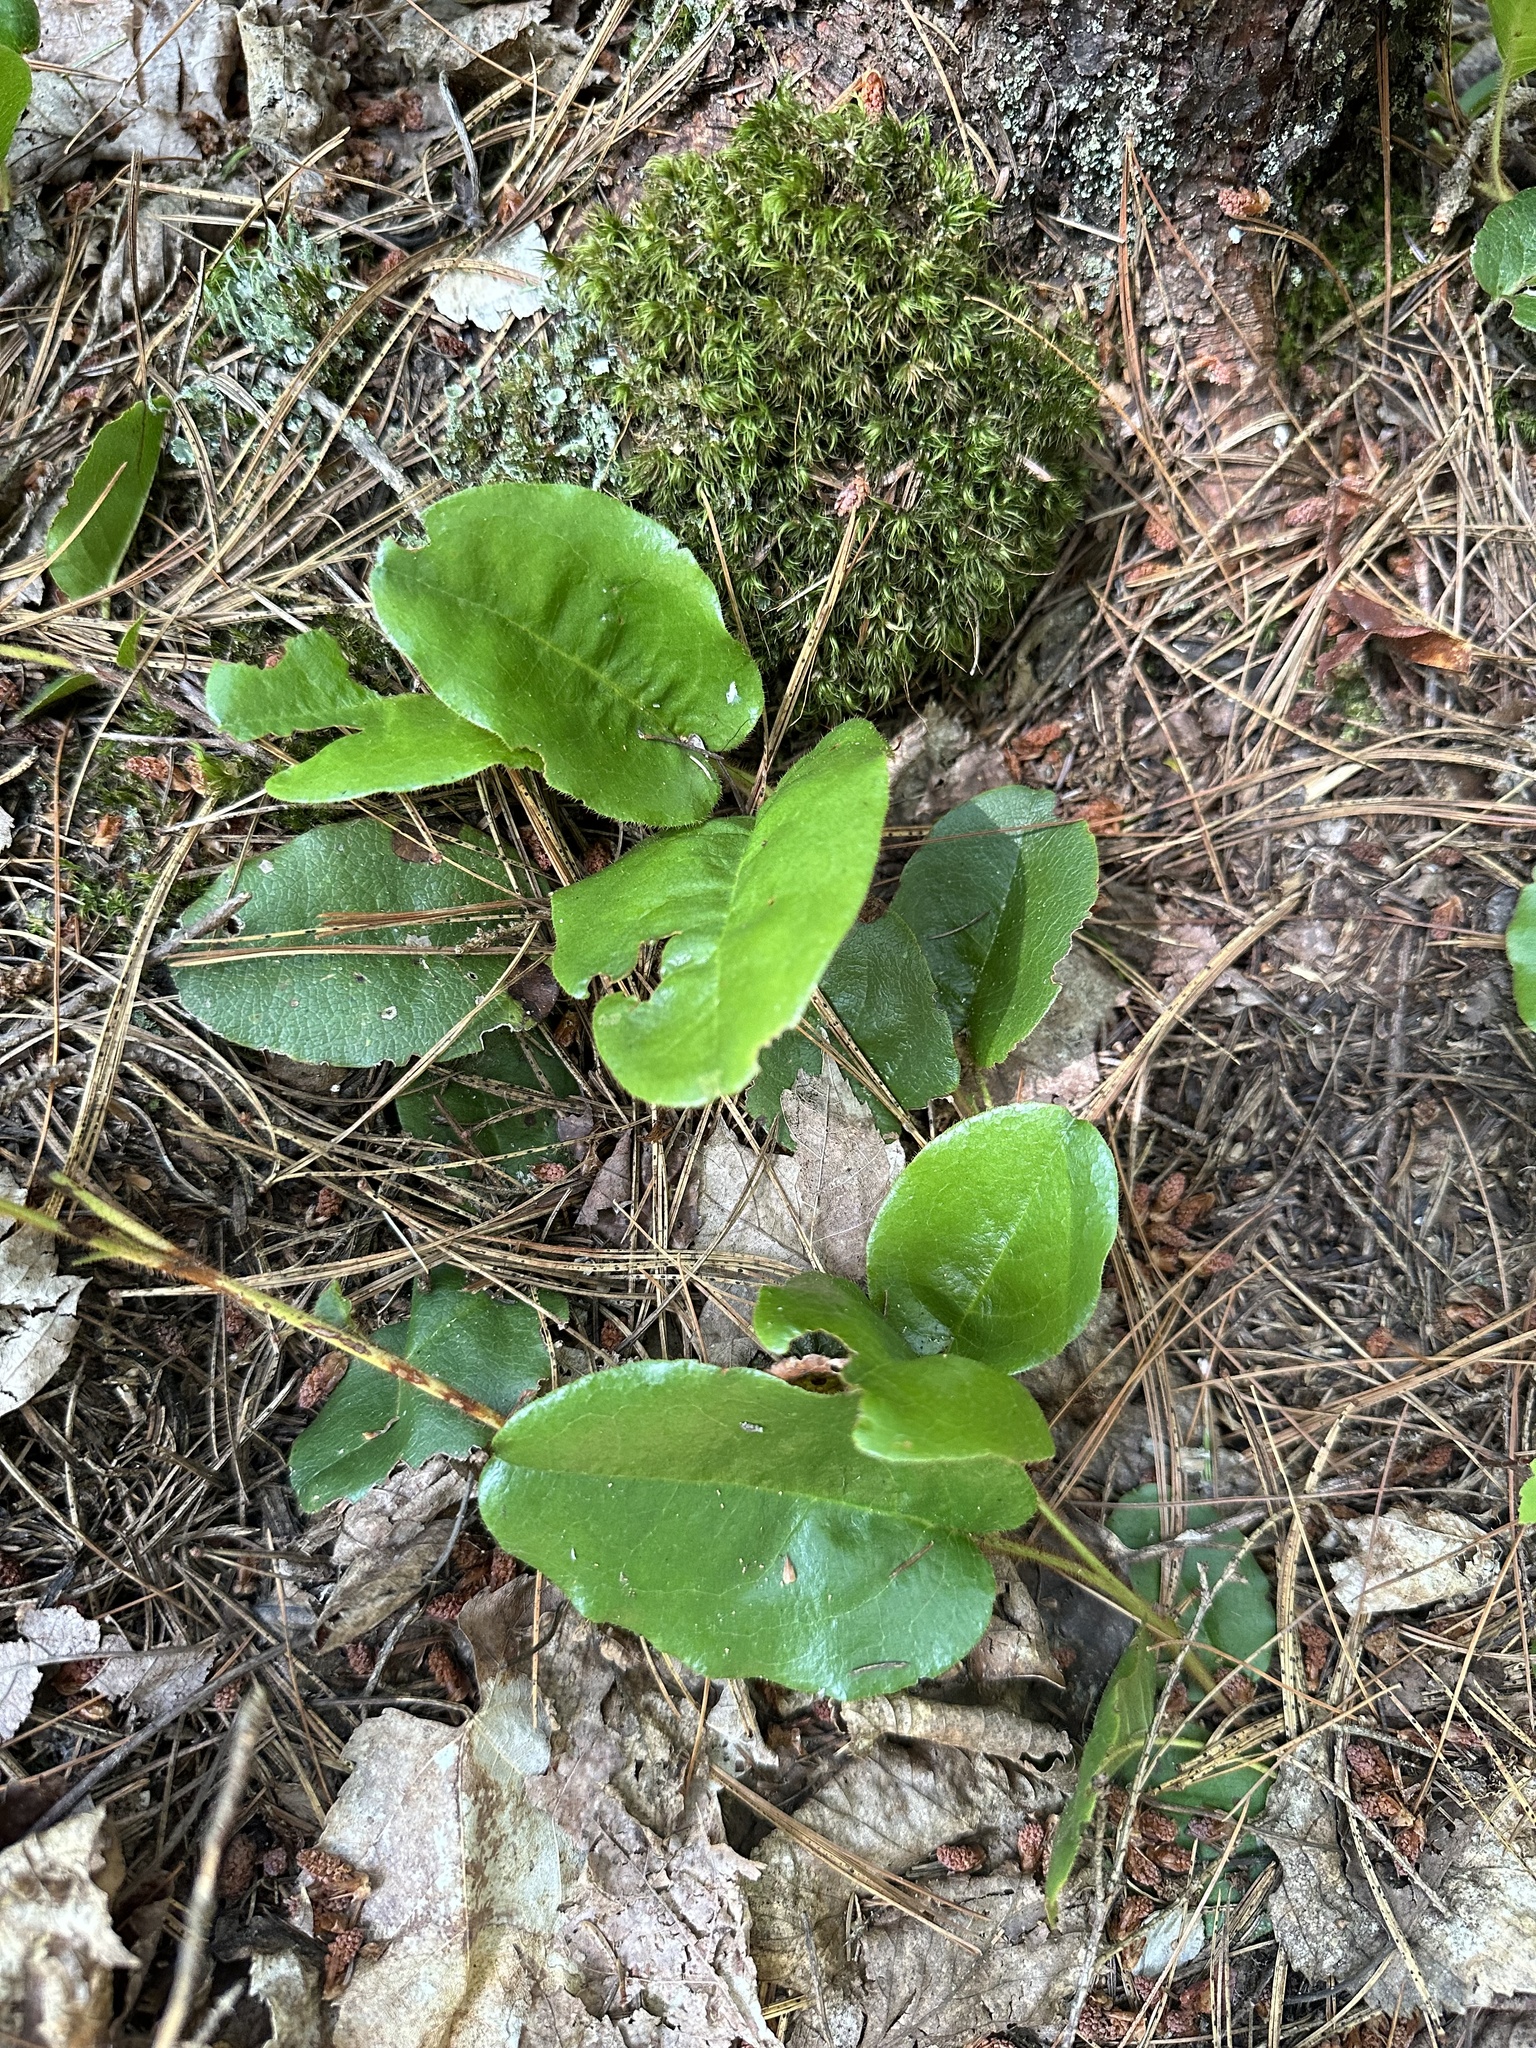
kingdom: Plantae
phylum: Tracheophyta
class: Magnoliopsida
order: Ericales
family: Ericaceae
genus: Epigaea
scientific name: Epigaea repens
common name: Gravelroot
